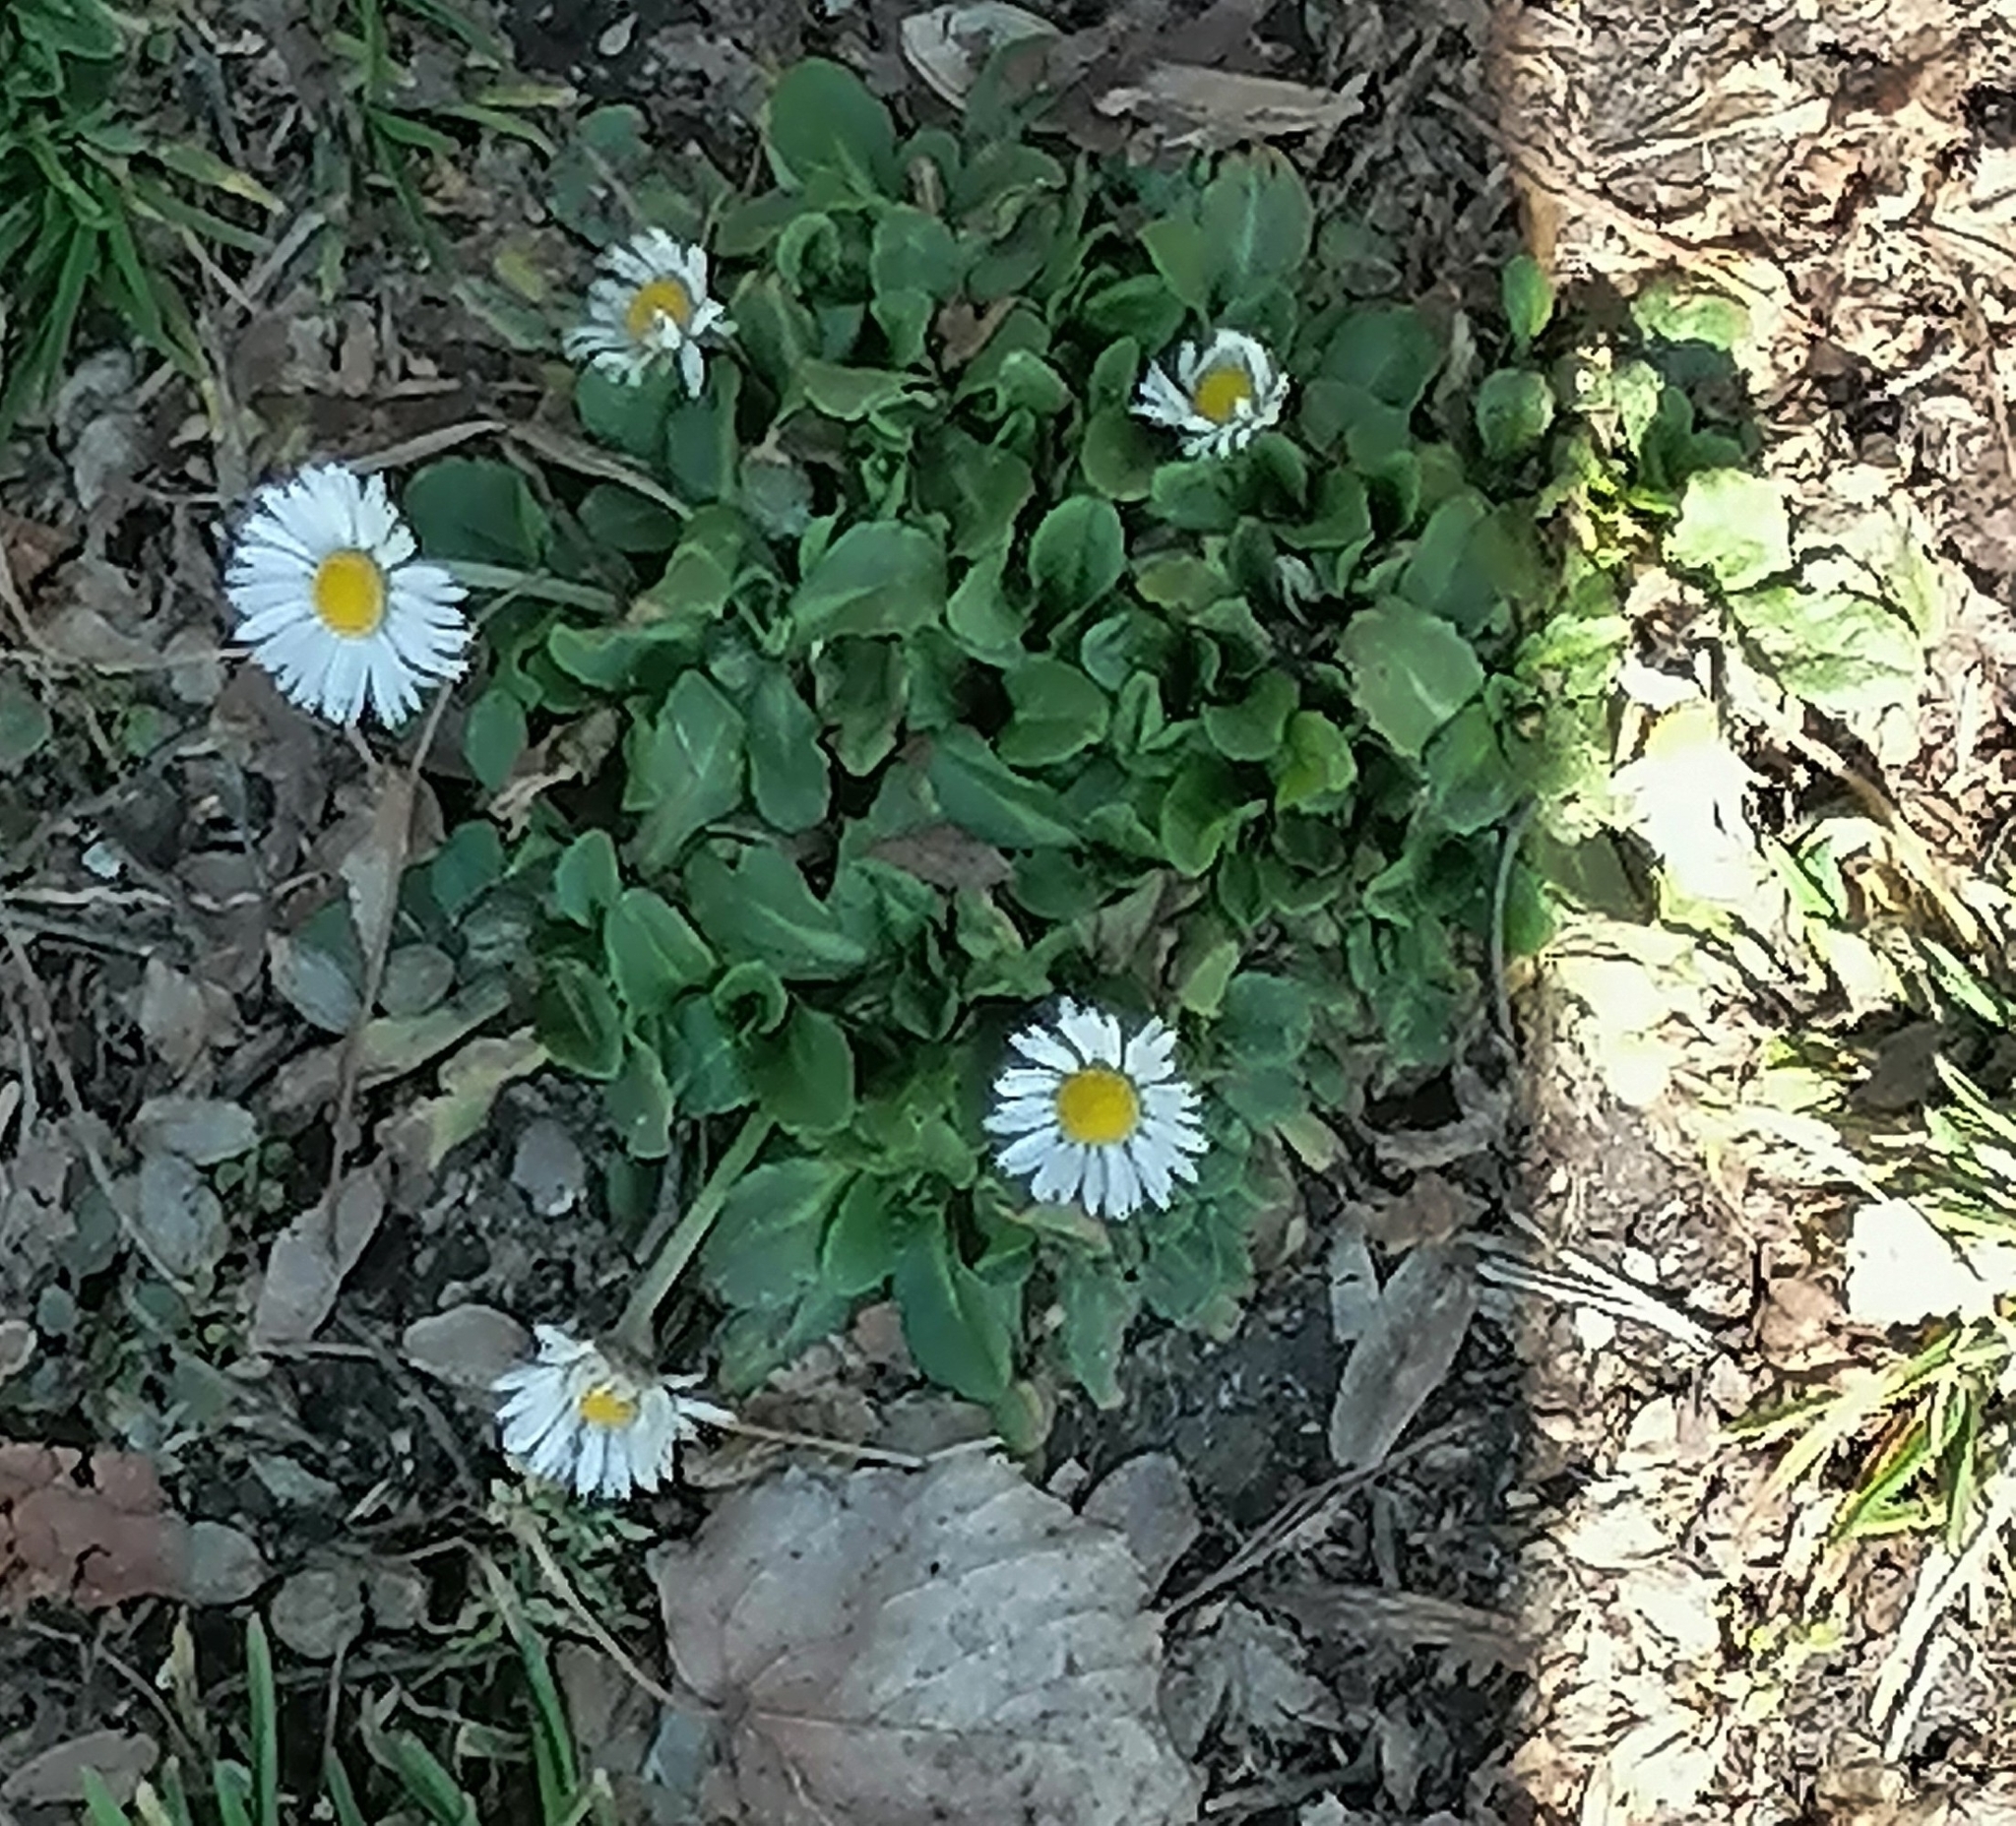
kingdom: Plantae
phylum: Tracheophyta
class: Magnoliopsida
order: Asterales
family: Asteraceae
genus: Bellis
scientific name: Bellis perennis
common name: Lawndaisy
